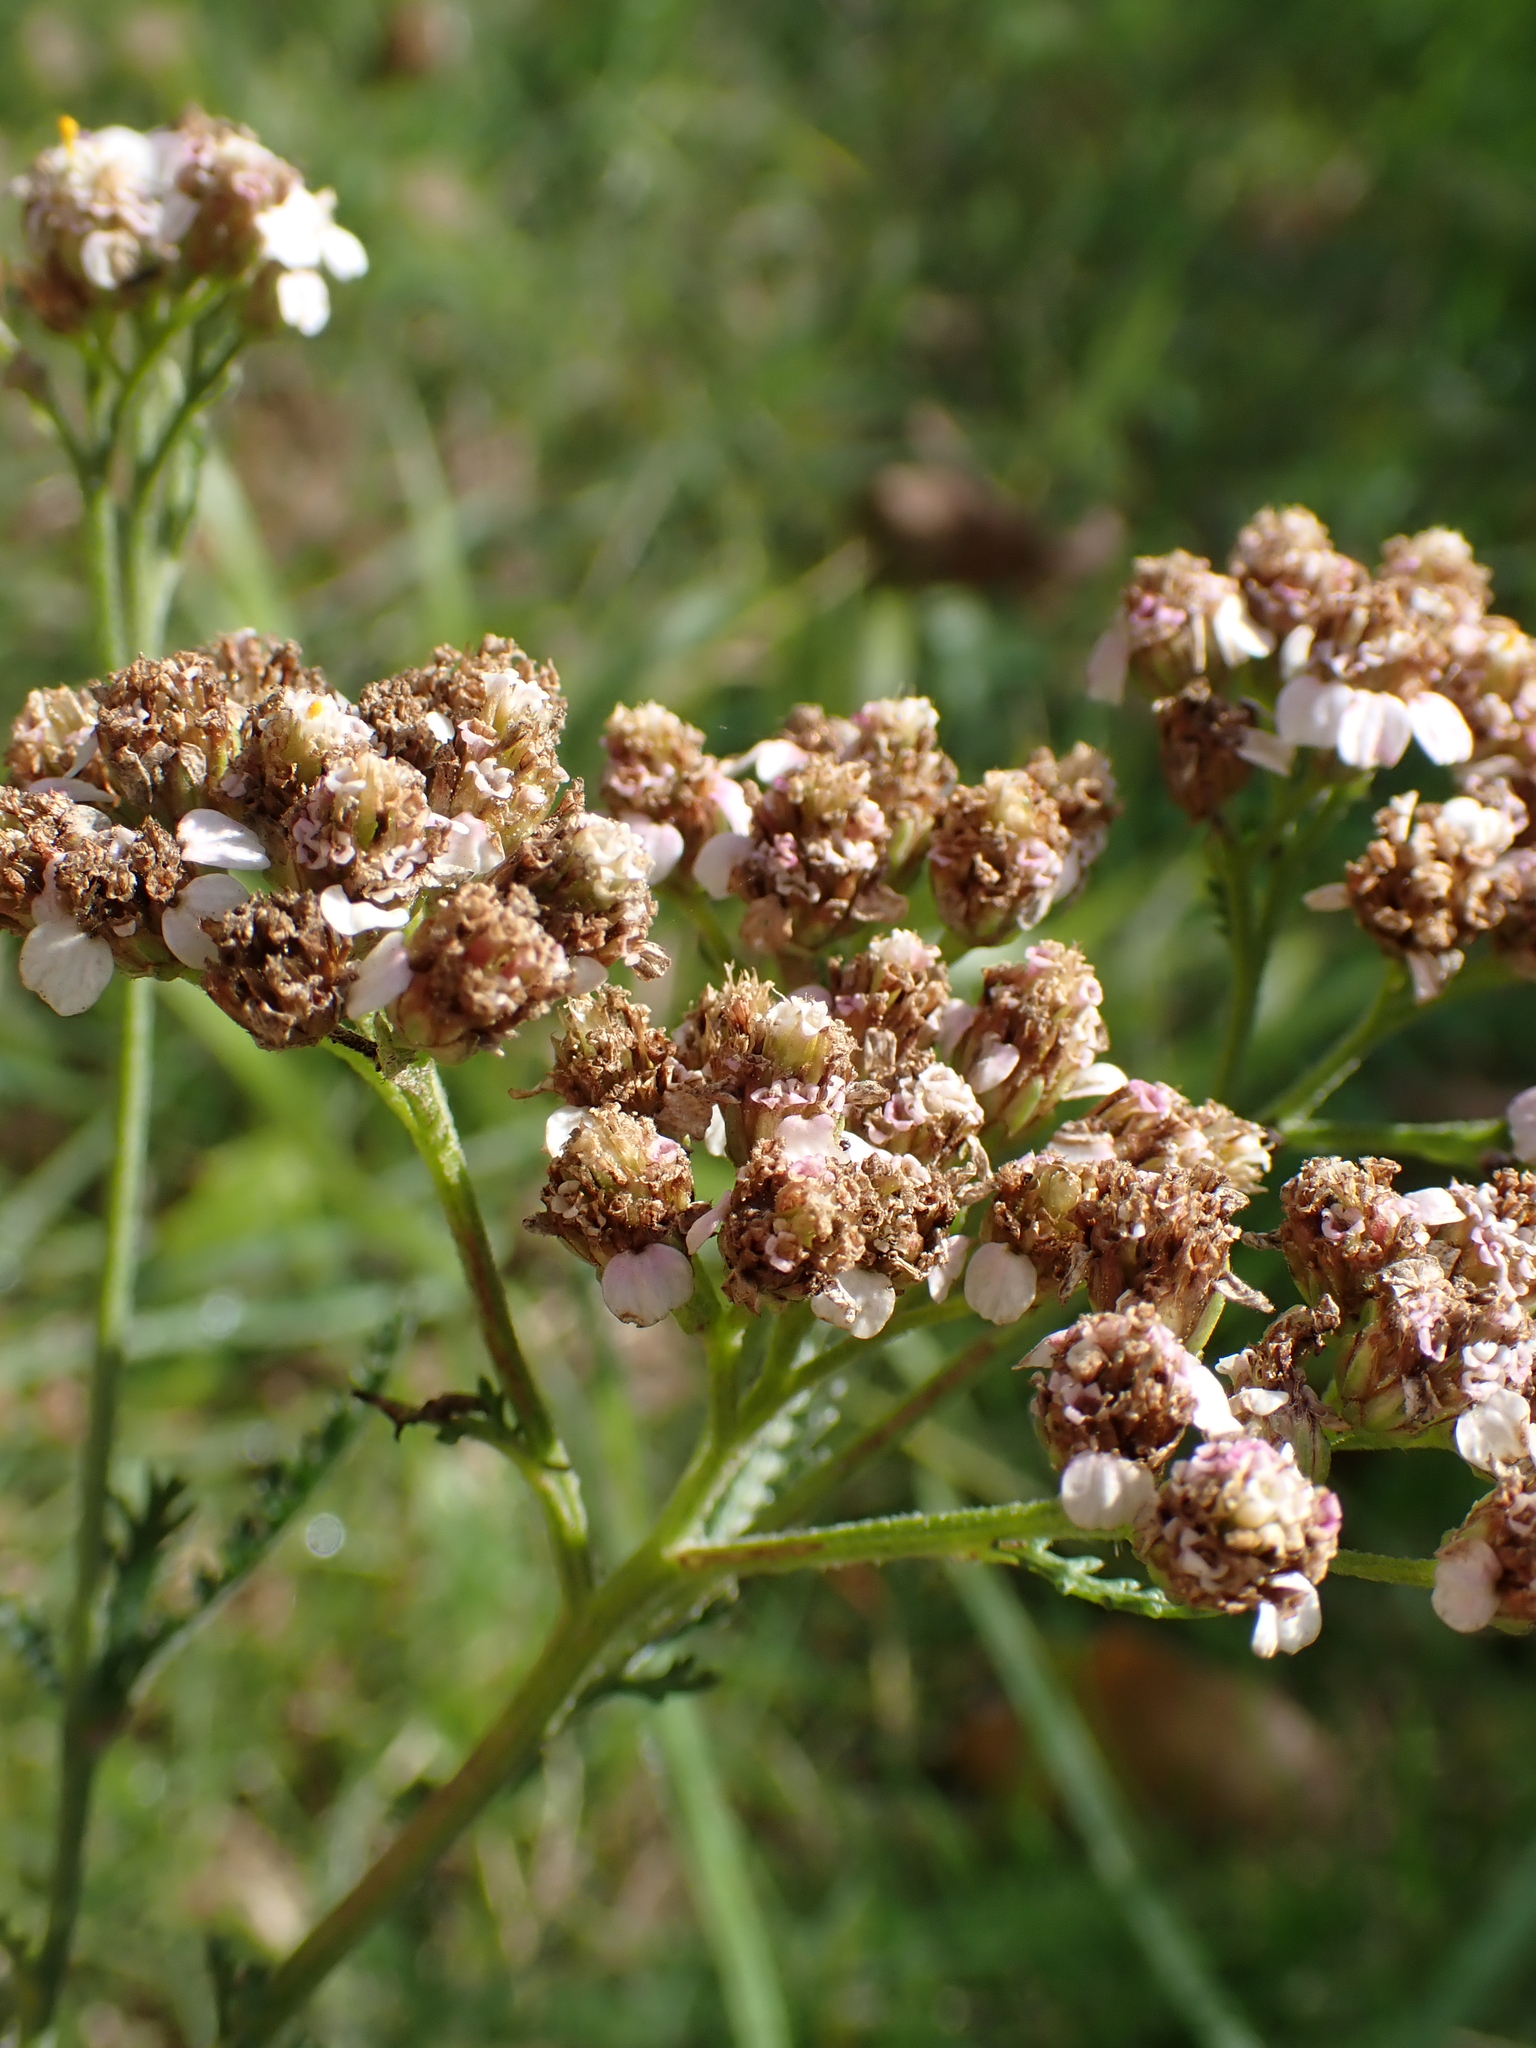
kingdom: Plantae
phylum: Tracheophyta
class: Magnoliopsida
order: Asterales
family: Asteraceae
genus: Achillea
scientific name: Achillea millefolium
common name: Yarrow
